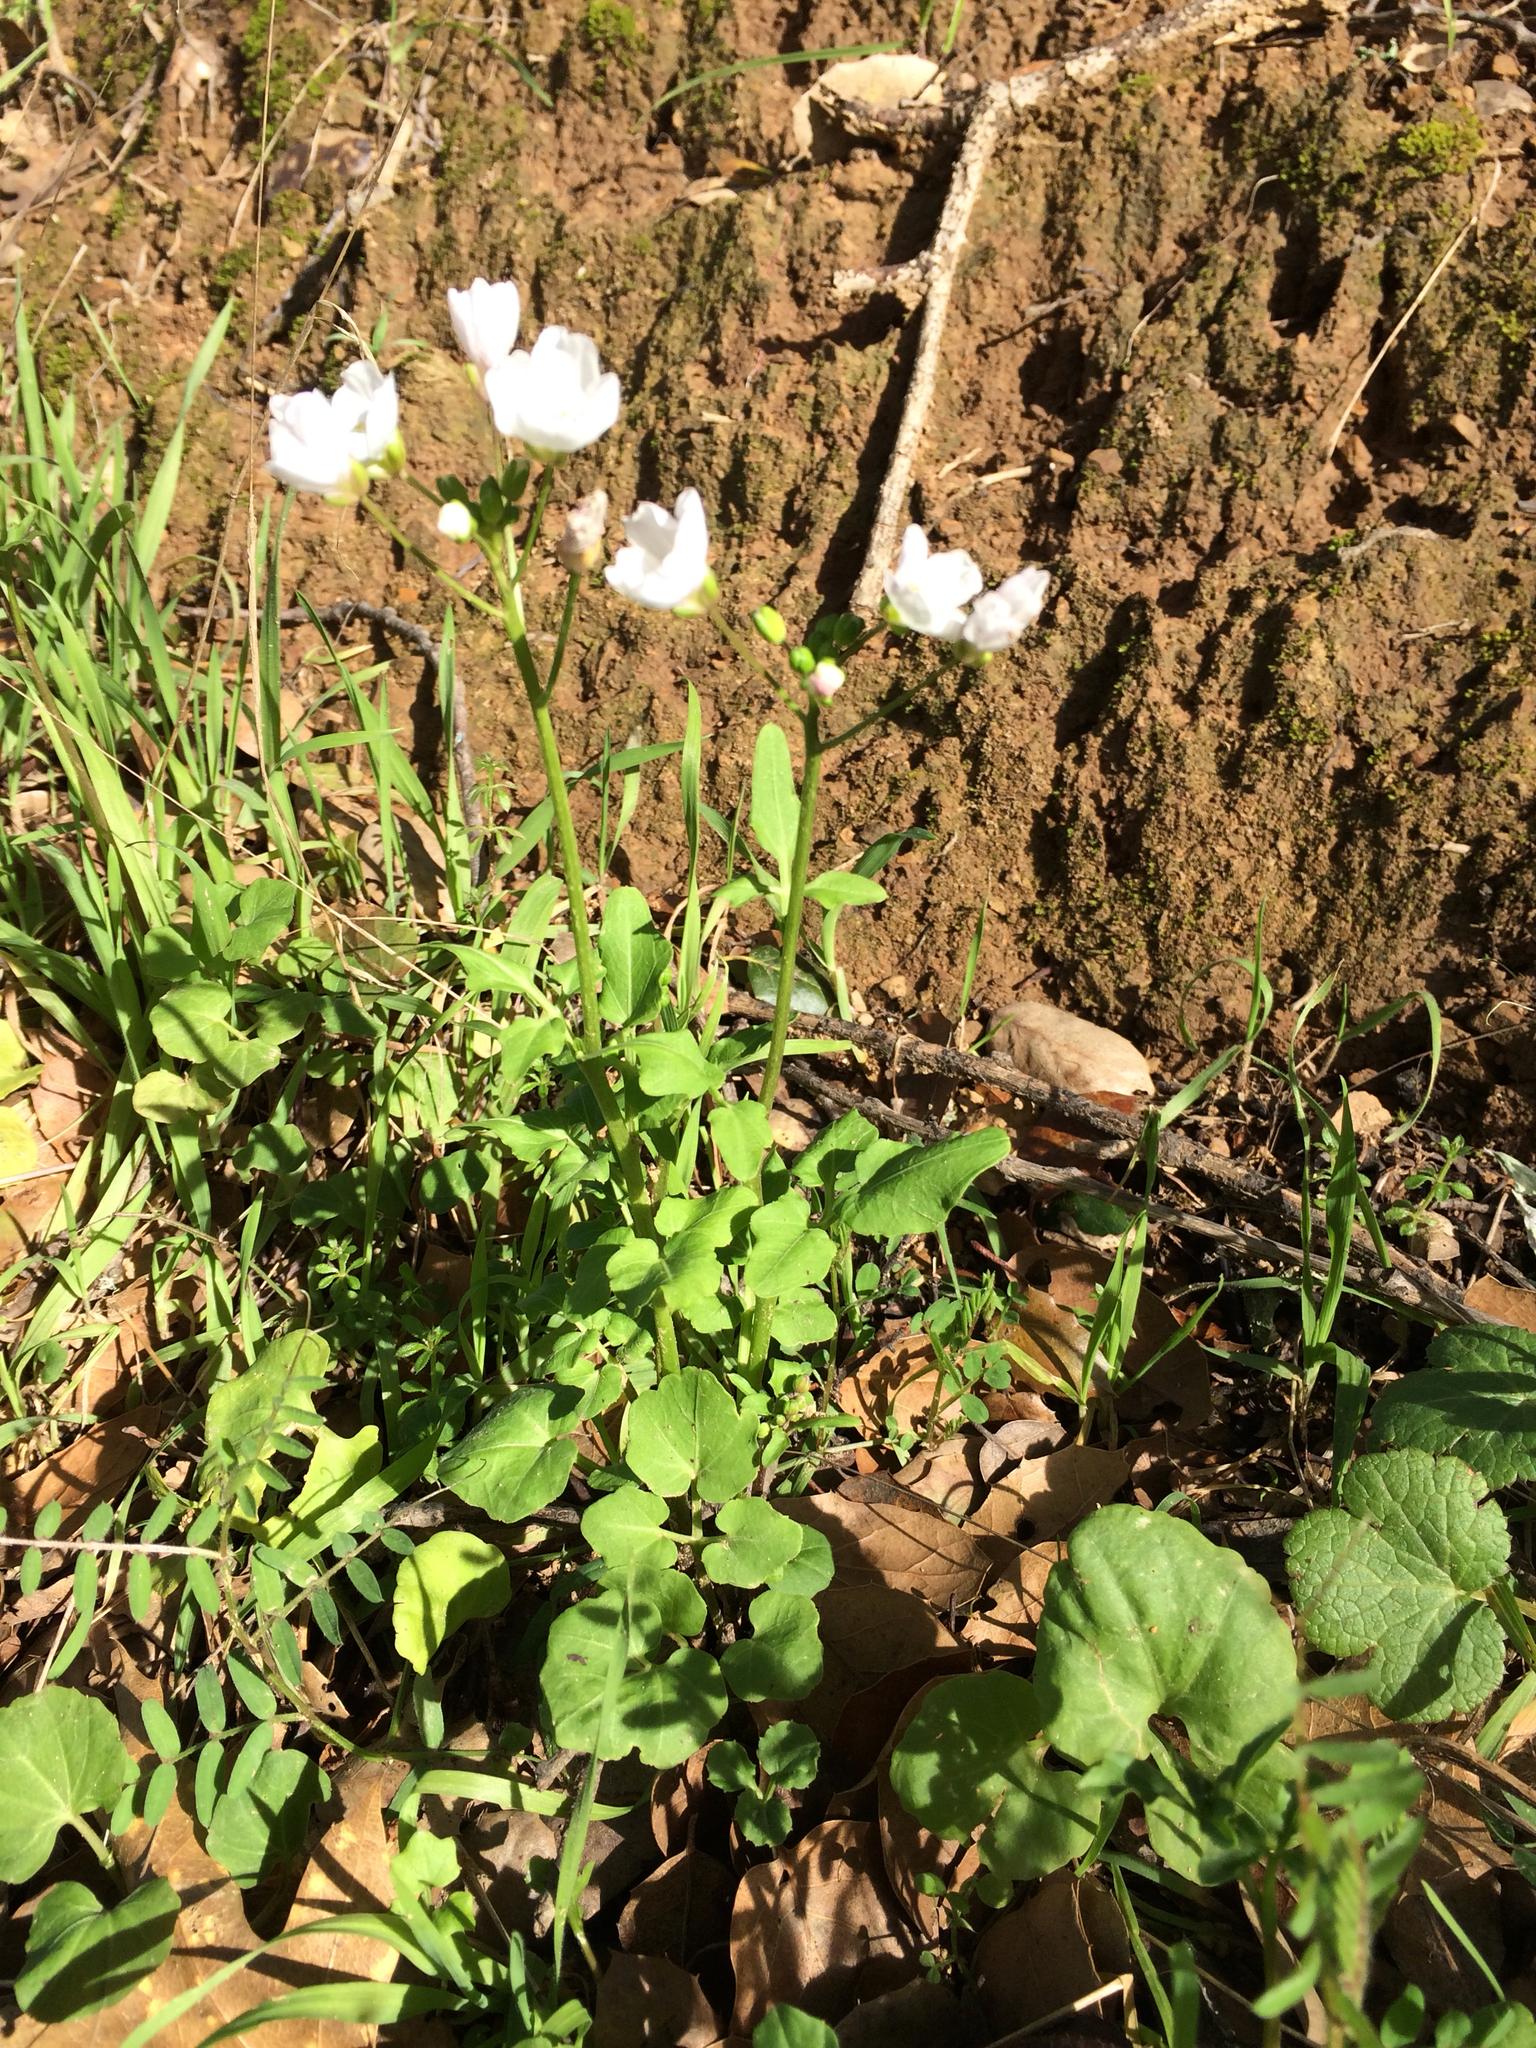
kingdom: Plantae
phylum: Tracheophyta
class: Magnoliopsida
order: Brassicales
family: Brassicaceae
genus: Cardamine
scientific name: Cardamine californica
